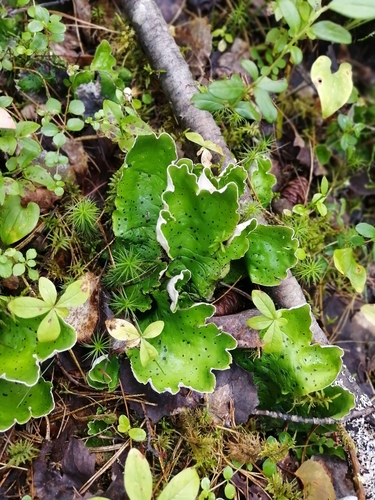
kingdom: Fungi
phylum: Ascomycota
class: Lecanoromycetes
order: Peltigerales
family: Peltigeraceae
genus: Peltigera
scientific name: Peltigera aphthosa
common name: Common freckle pelt lichen
